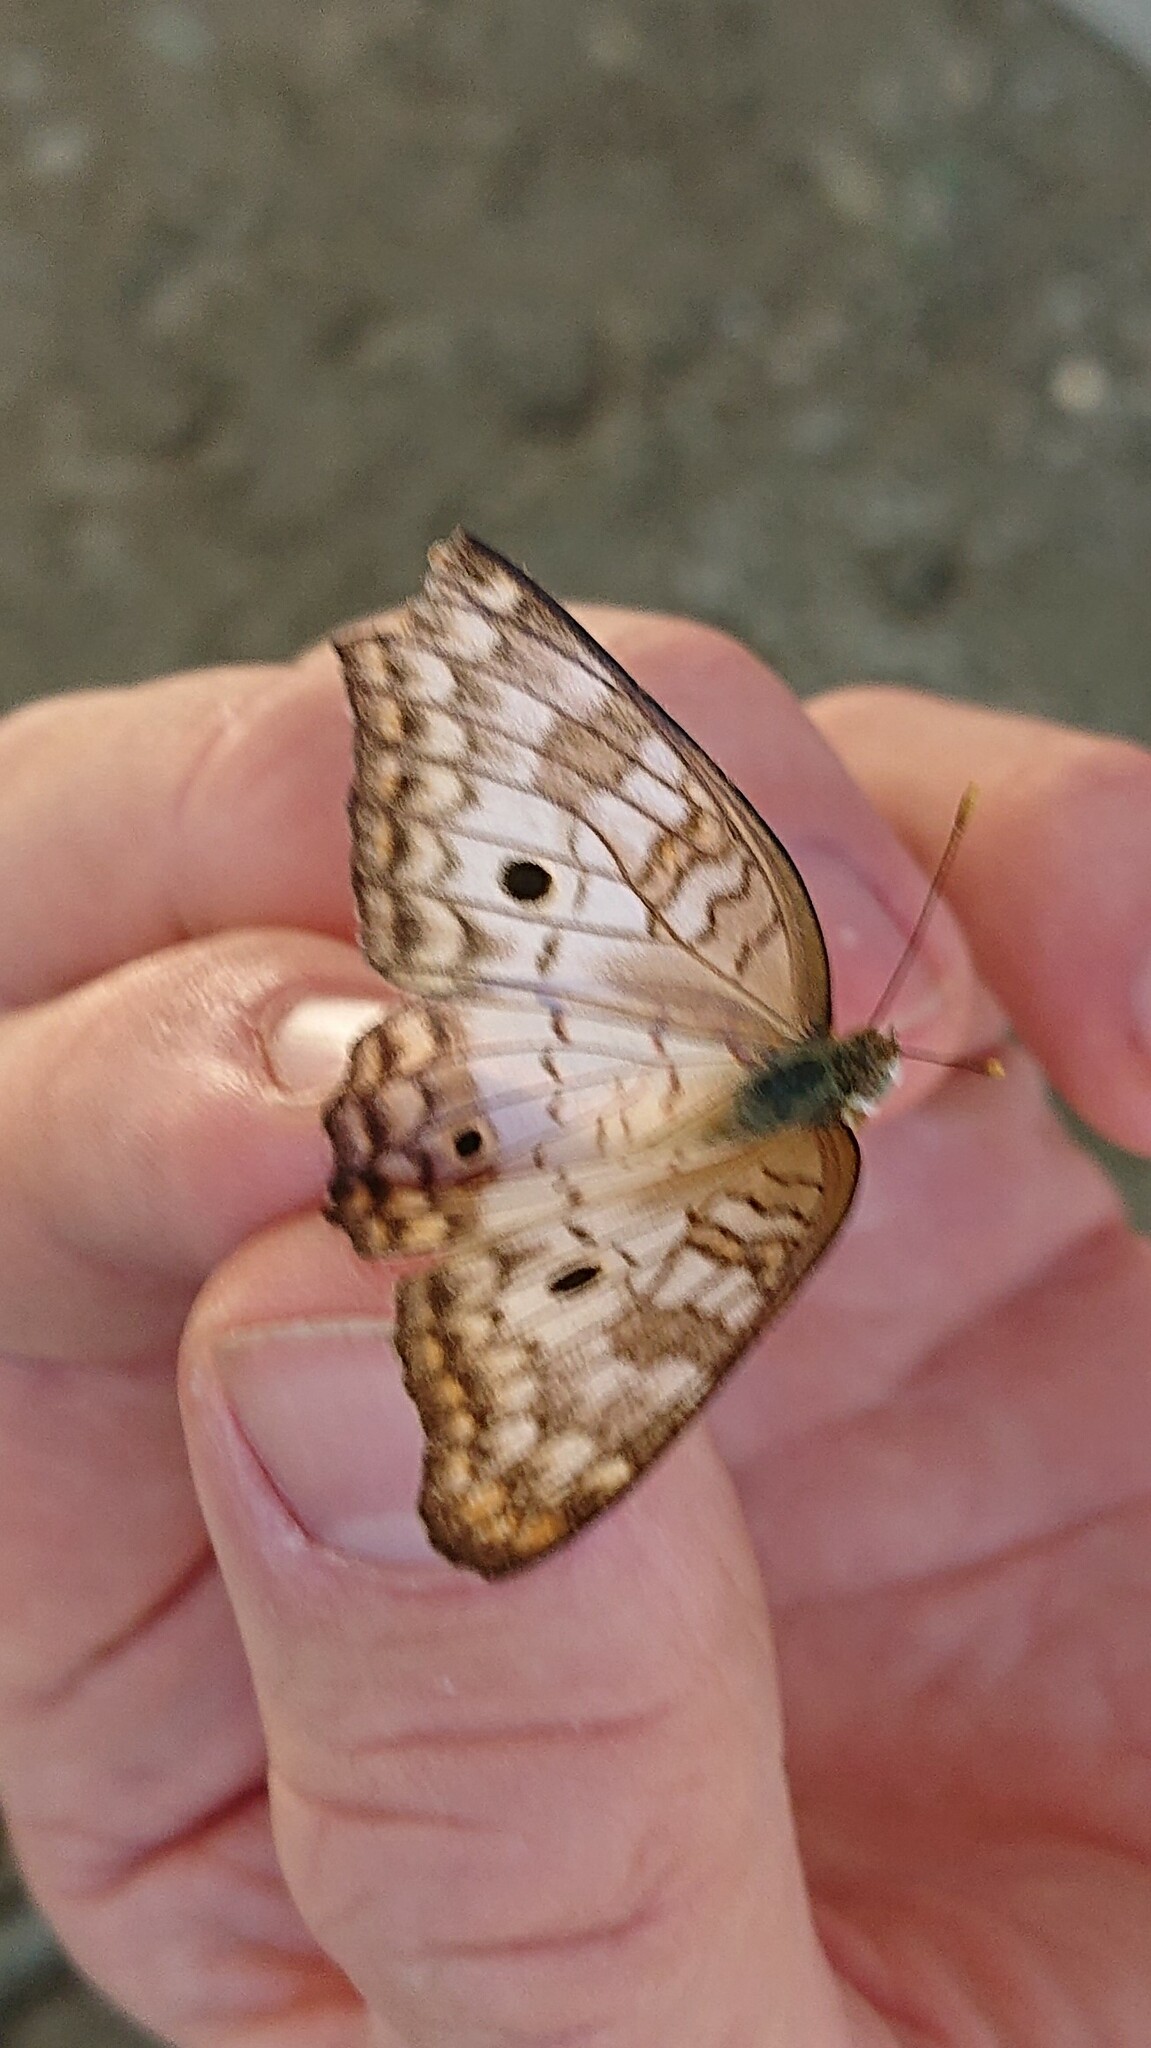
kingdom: Animalia
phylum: Arthropoda
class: Insecta
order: Lepidoptera
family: Nymphalidae
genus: Anartia
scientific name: Anartia jatrophae
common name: White peacock
